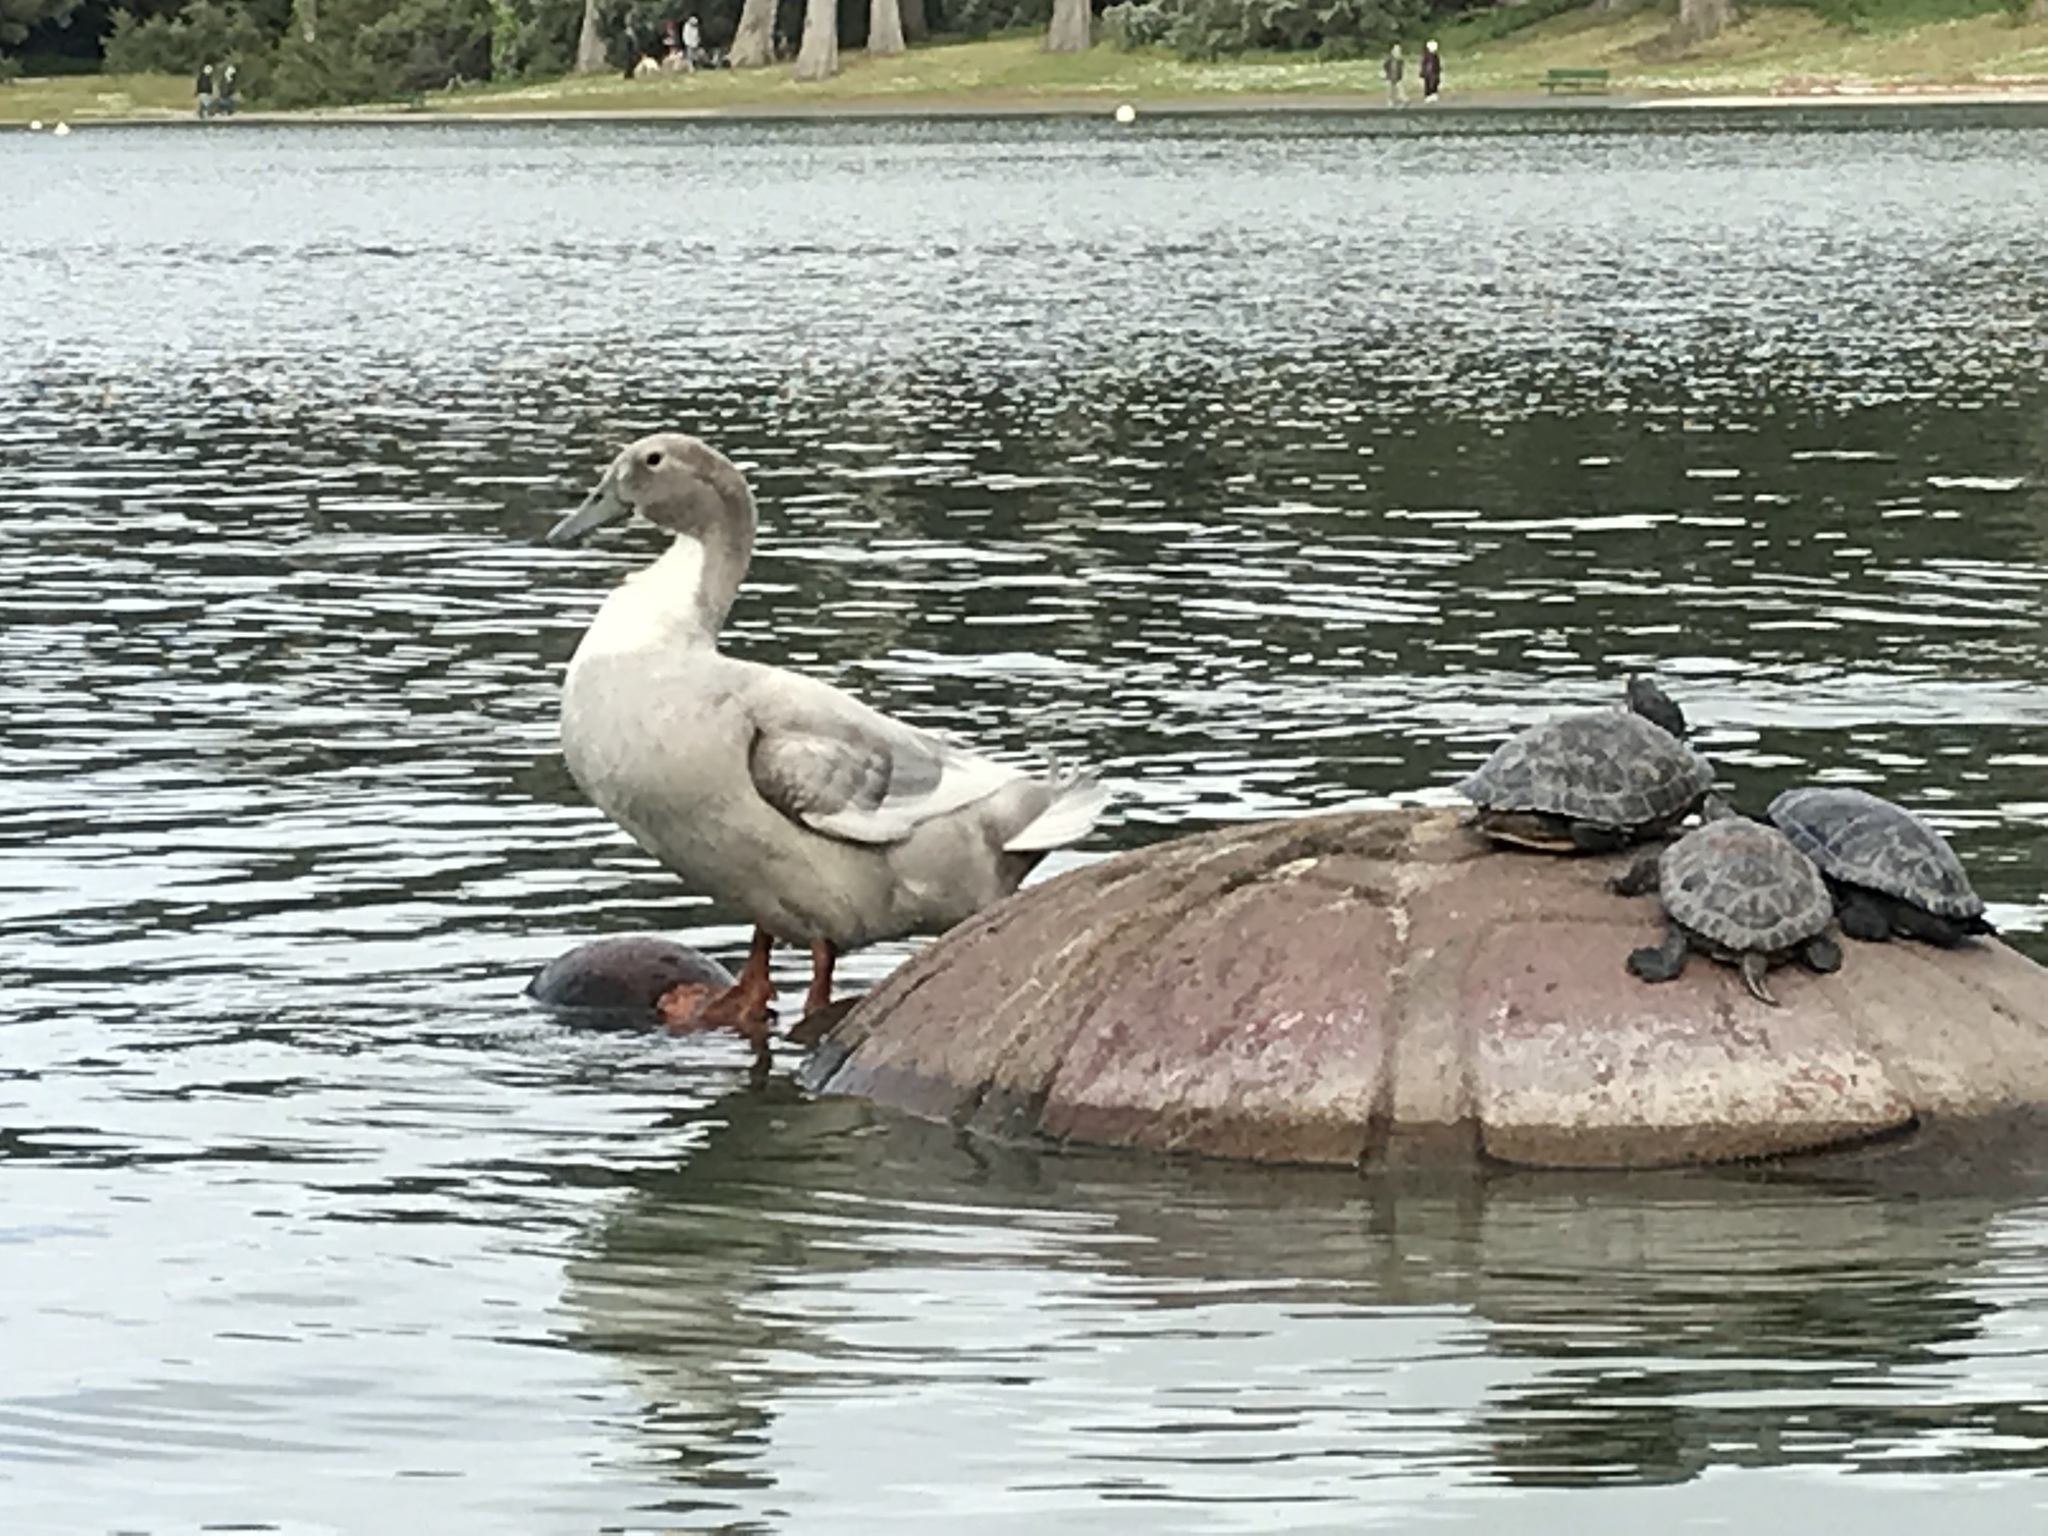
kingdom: Animalia
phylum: Chordata
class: Aves
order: Anseriformes
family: Anatidae
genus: Anas
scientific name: Anas platyrhynchos
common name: Mallard
